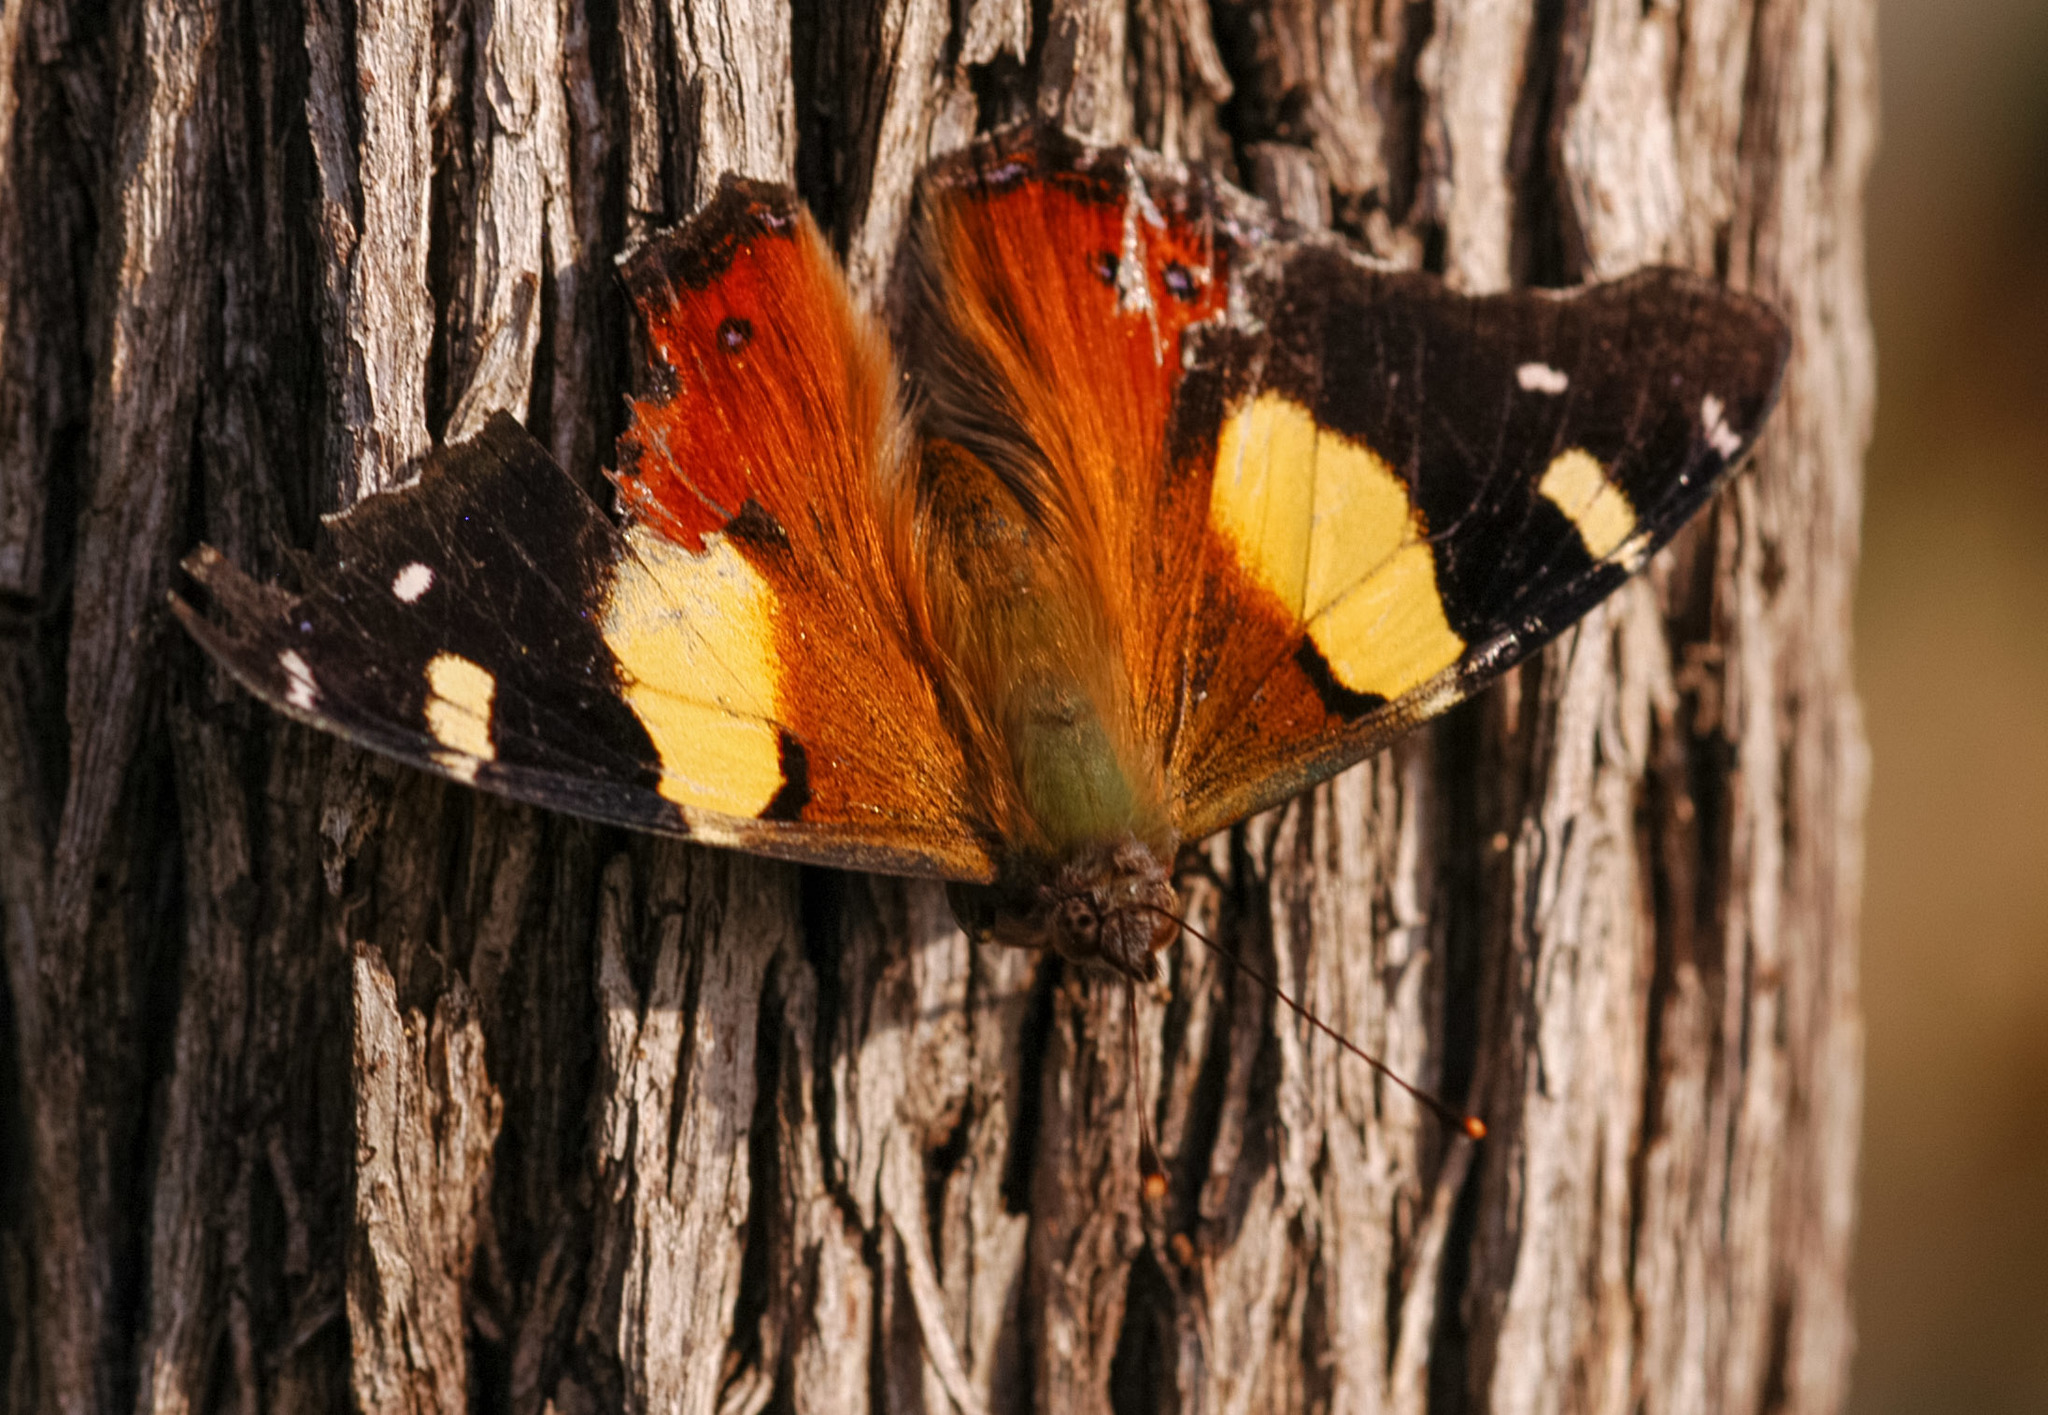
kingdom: Animalia
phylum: Arthropoda
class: Insecta
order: Lepidoptera
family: Nymphalidae
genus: Vanessa
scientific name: Vanessa itea
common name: Yellow admiral
